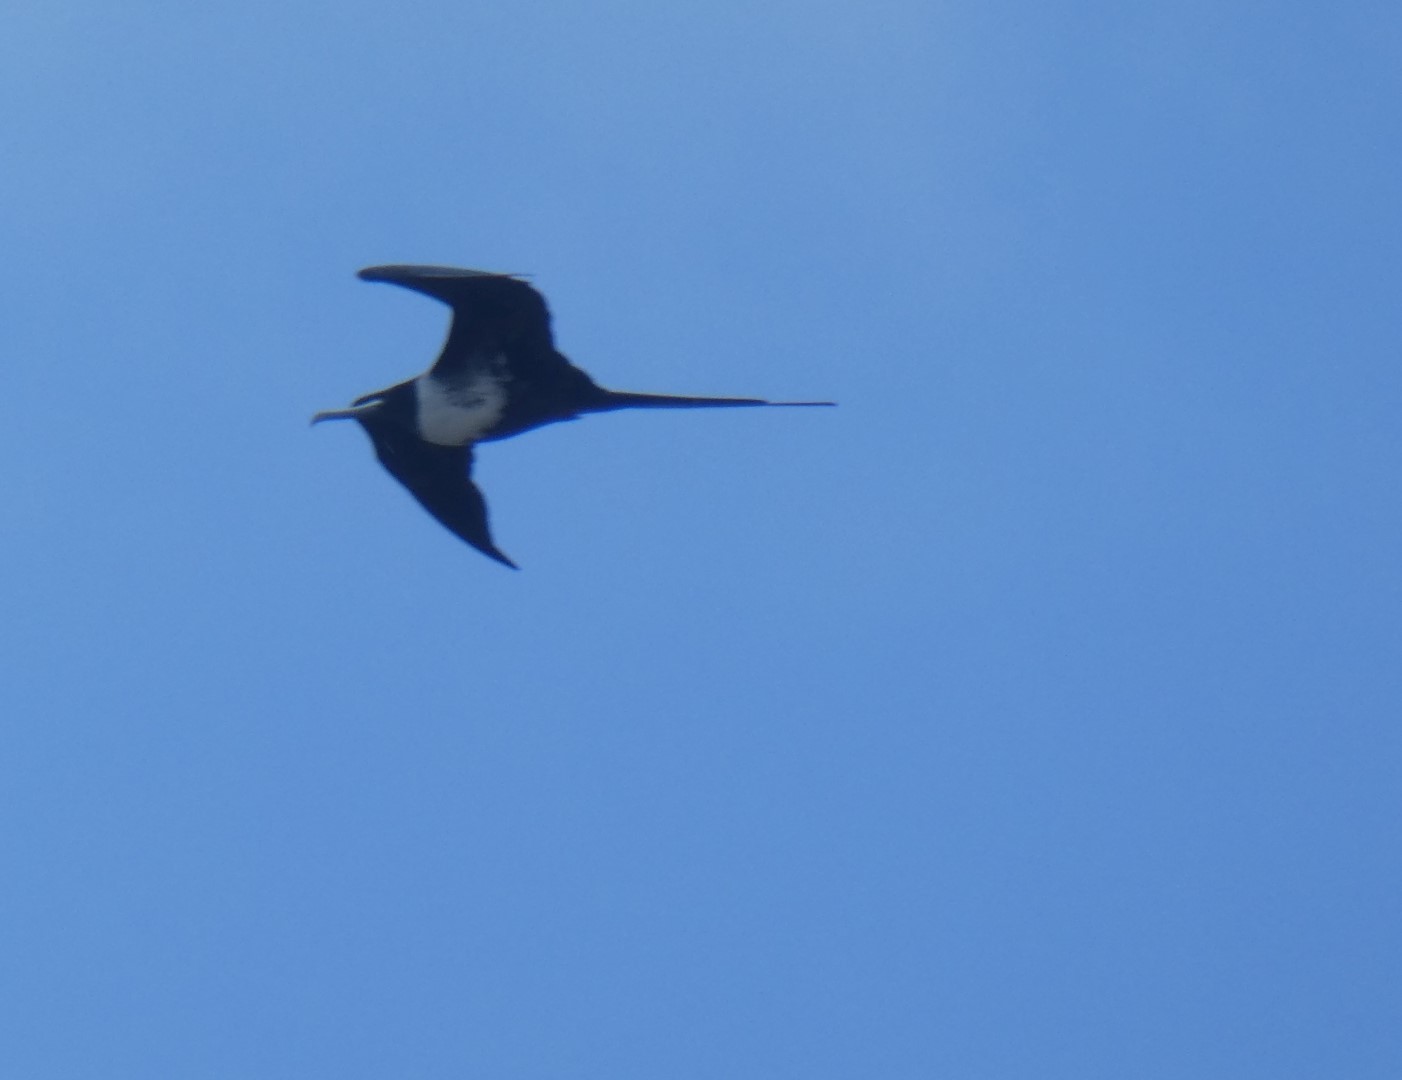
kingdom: Animalia
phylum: Chordata
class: Aves
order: Suliformes
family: Fregatidae
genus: Fregata
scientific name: Fregata magnificens
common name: Magnificent frigatebird
